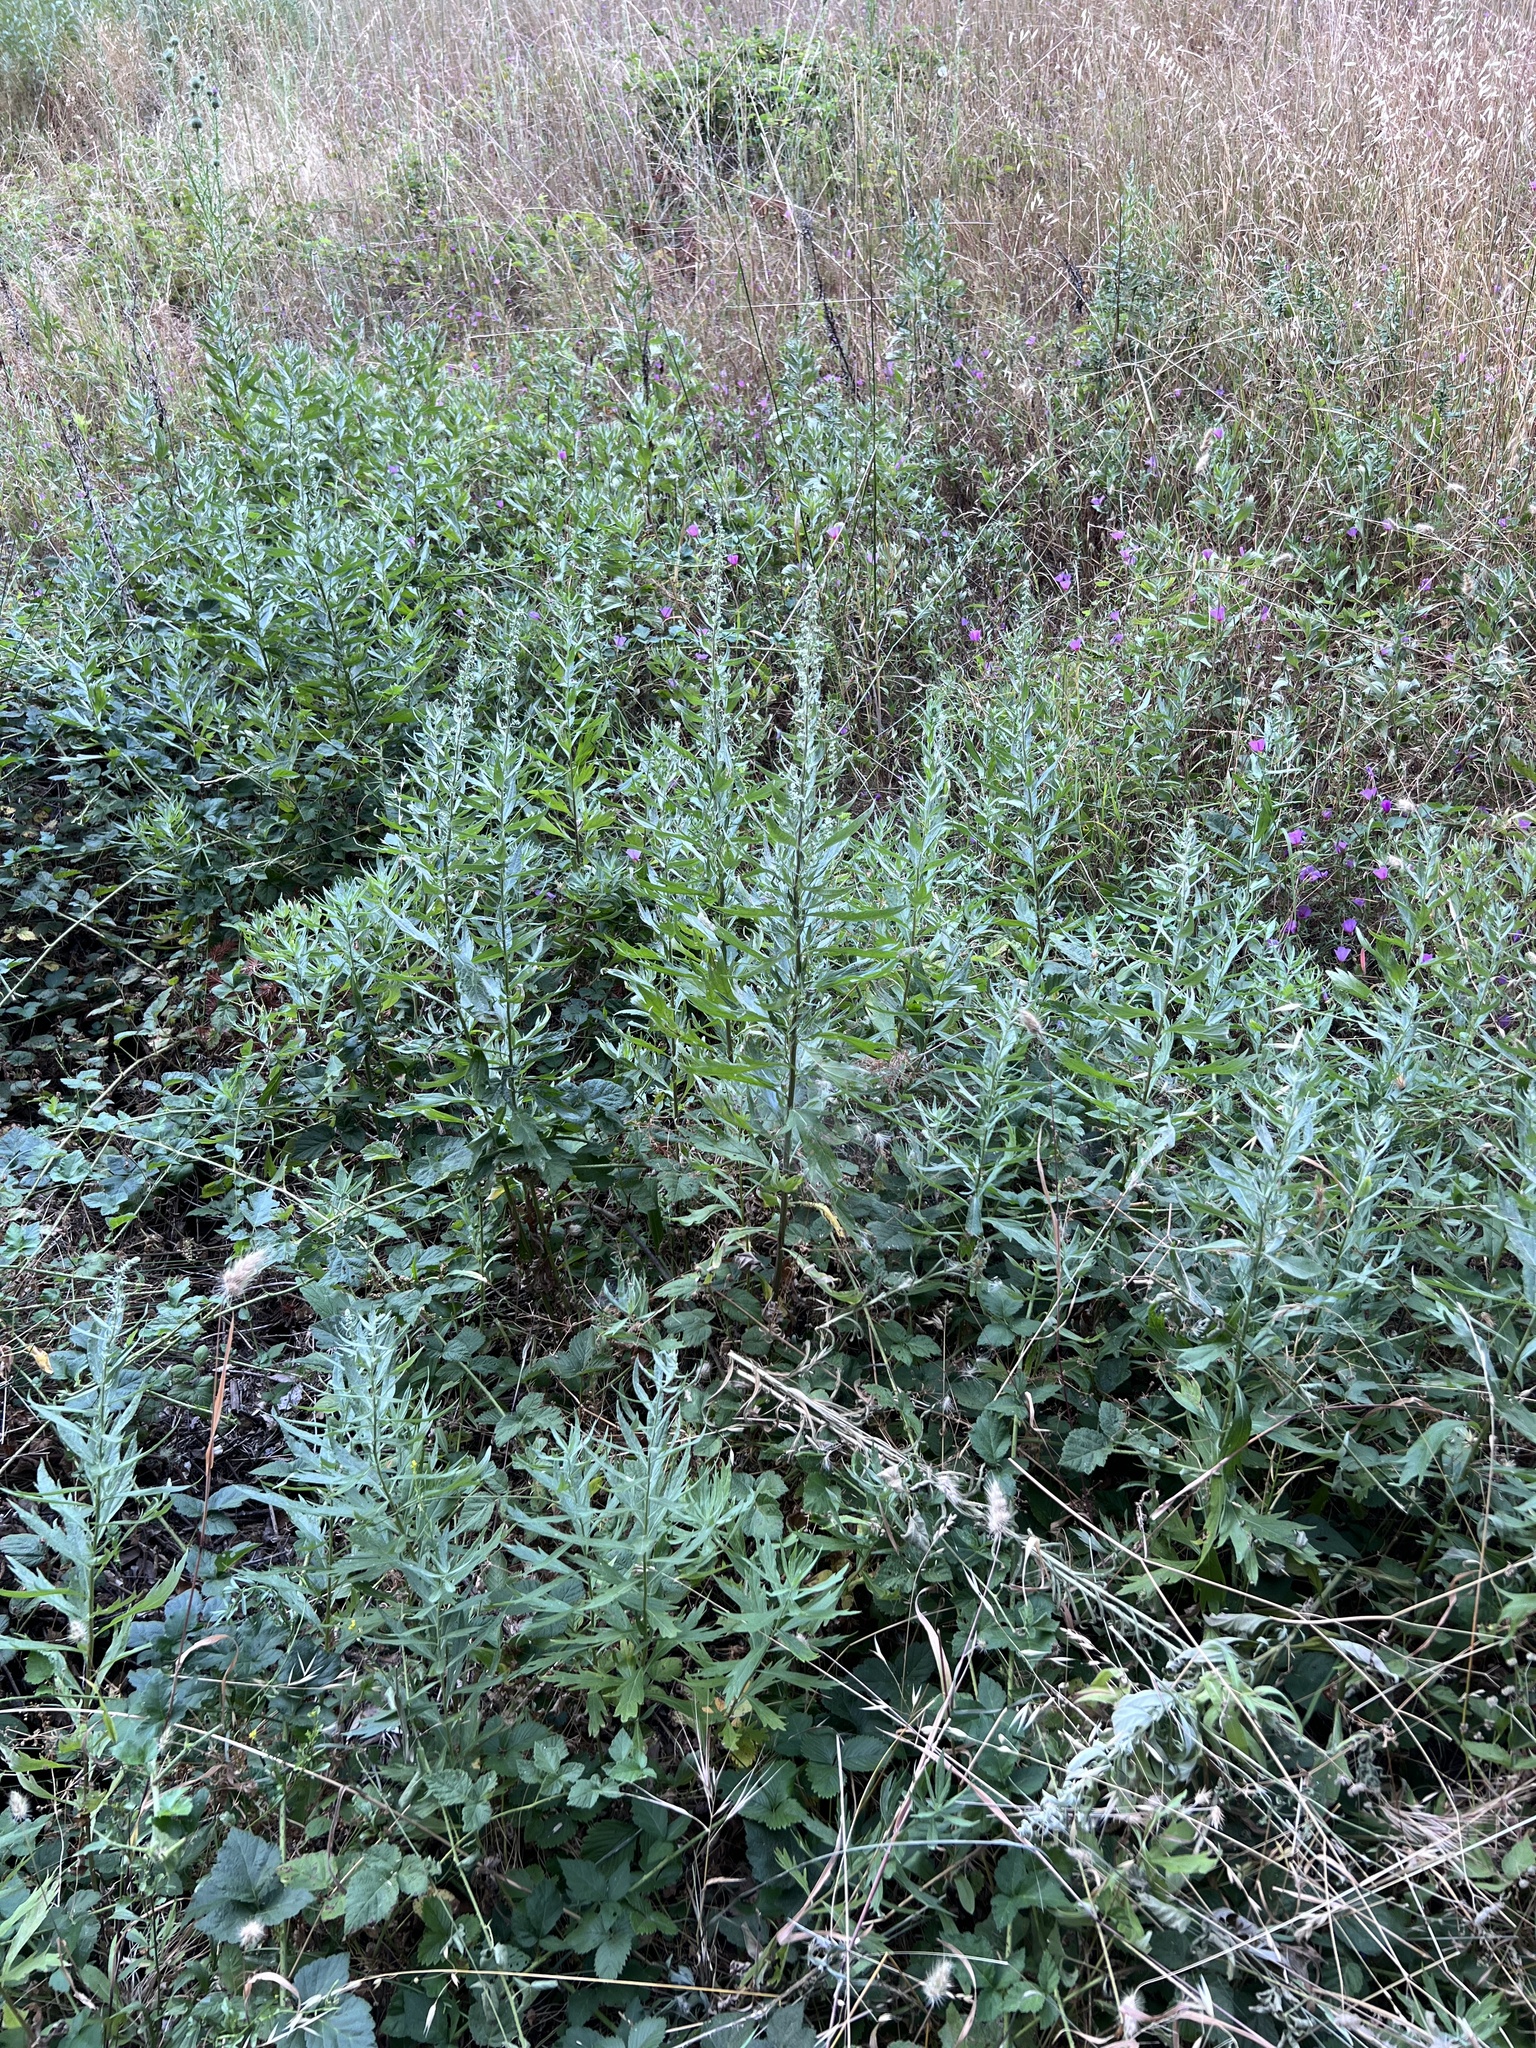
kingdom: Plantae
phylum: Tracheophyta
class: Magnoliopsida
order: Asterales
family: Asteraceae
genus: Artemisia
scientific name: Artemisia douglasiana
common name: Northwest mugwort
